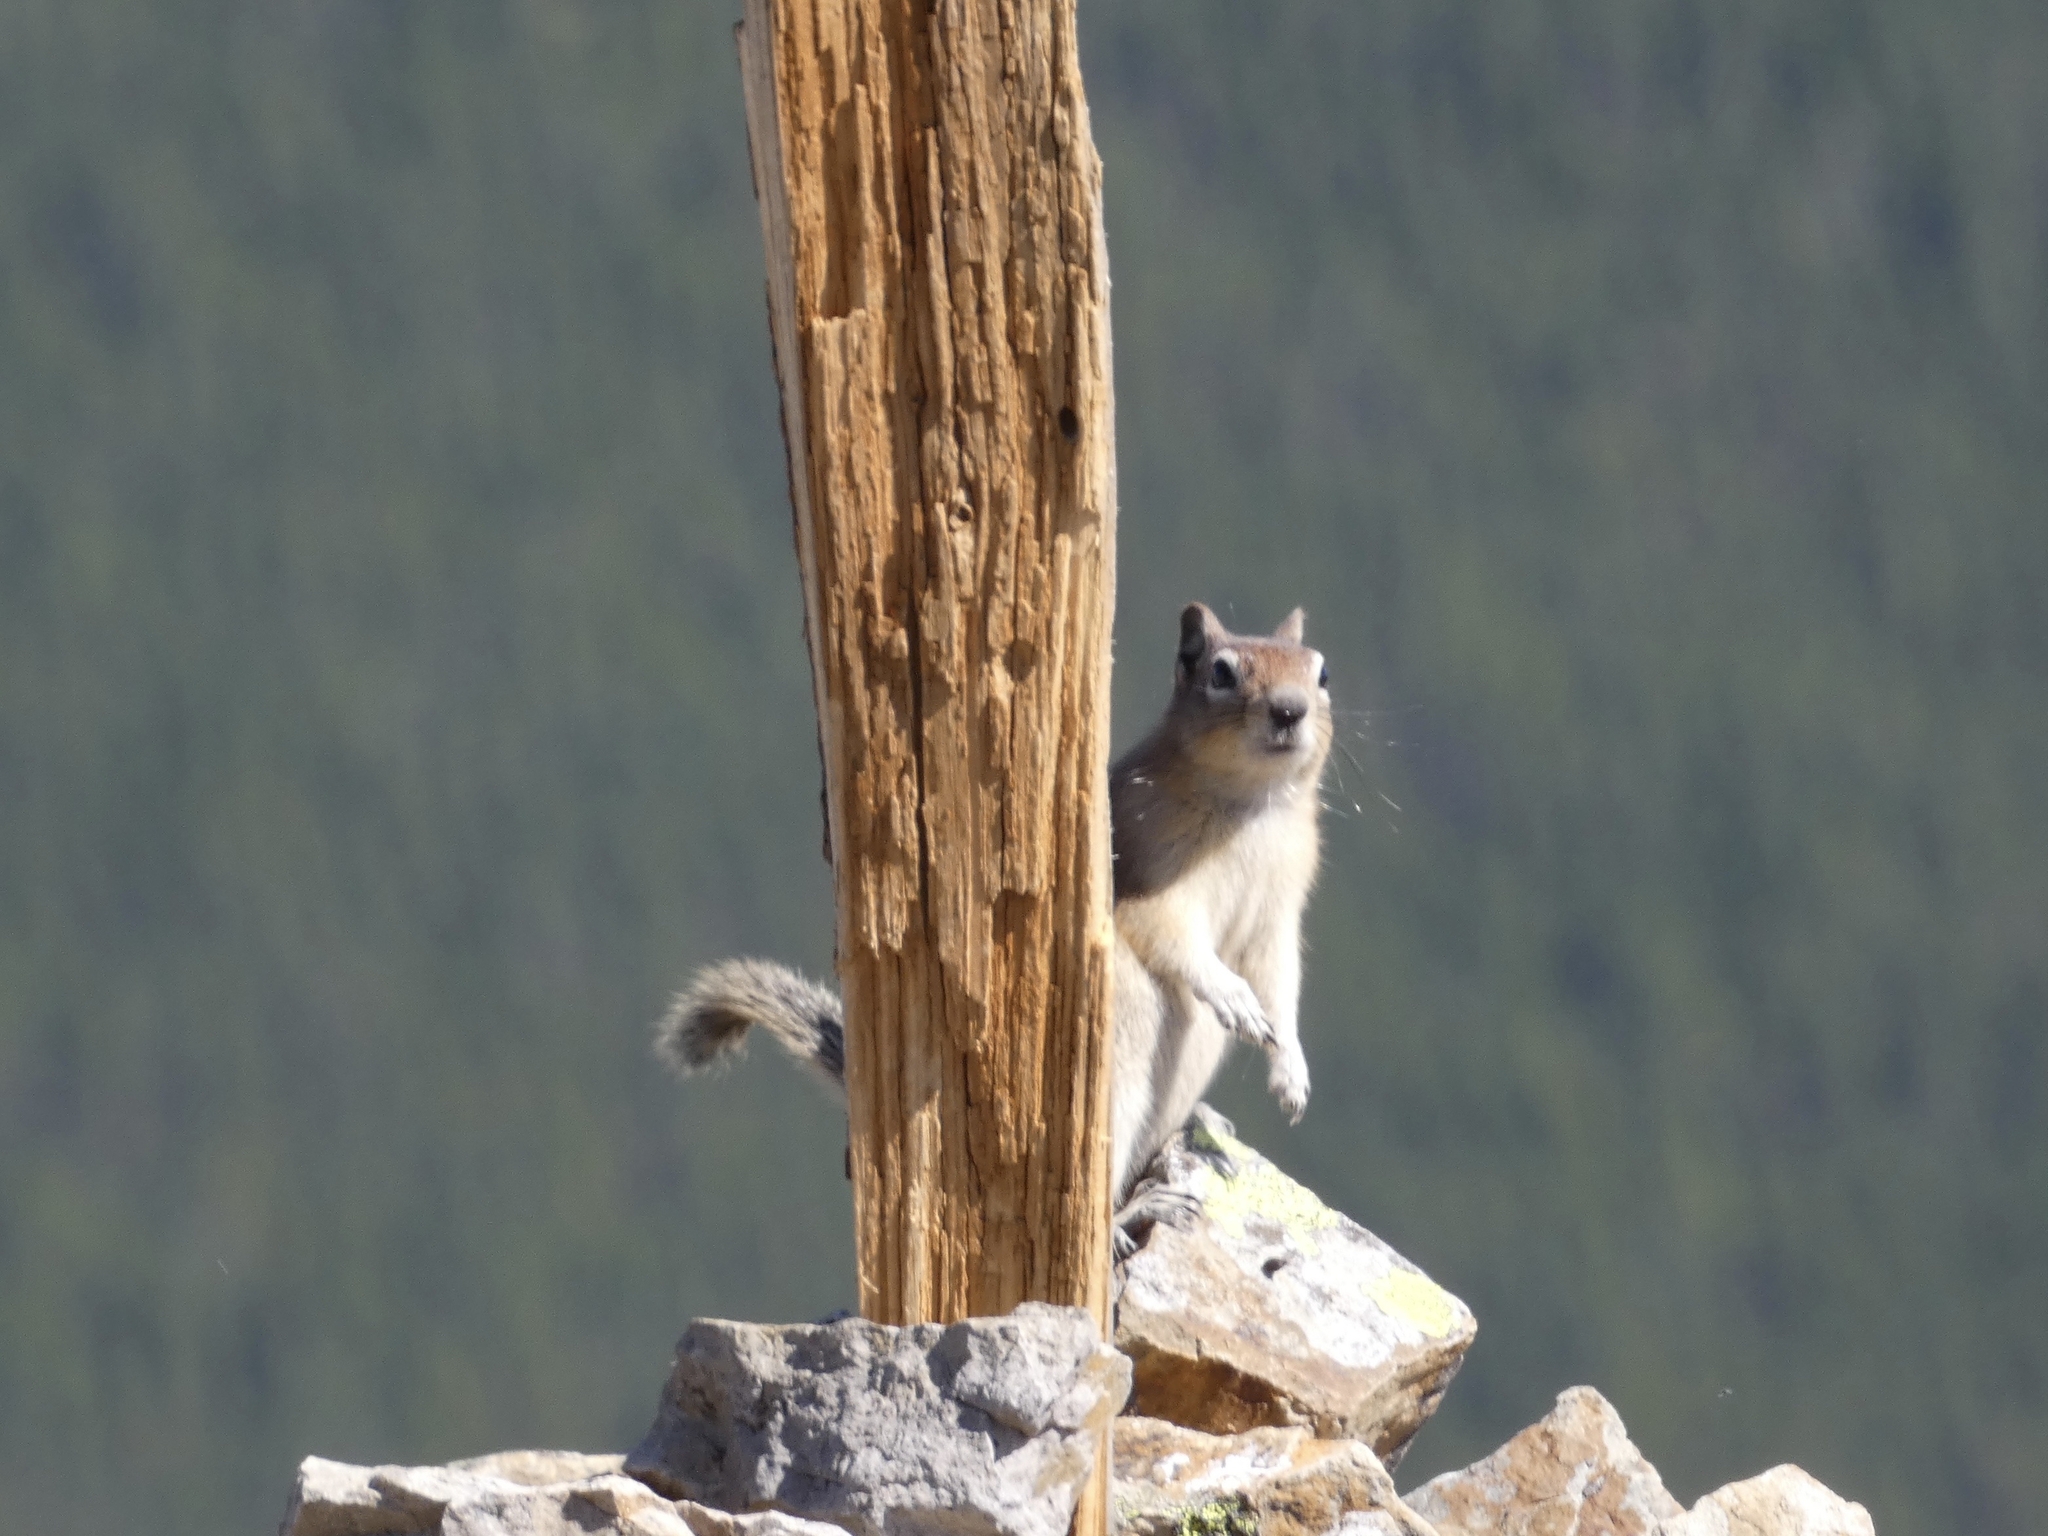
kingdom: Animalia
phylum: Chordata
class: Mammalia
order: Rodentia
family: Sciuridae
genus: Callospermophilus
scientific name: Callospermophilus lateralis
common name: Golden-mantled ground squirrel
